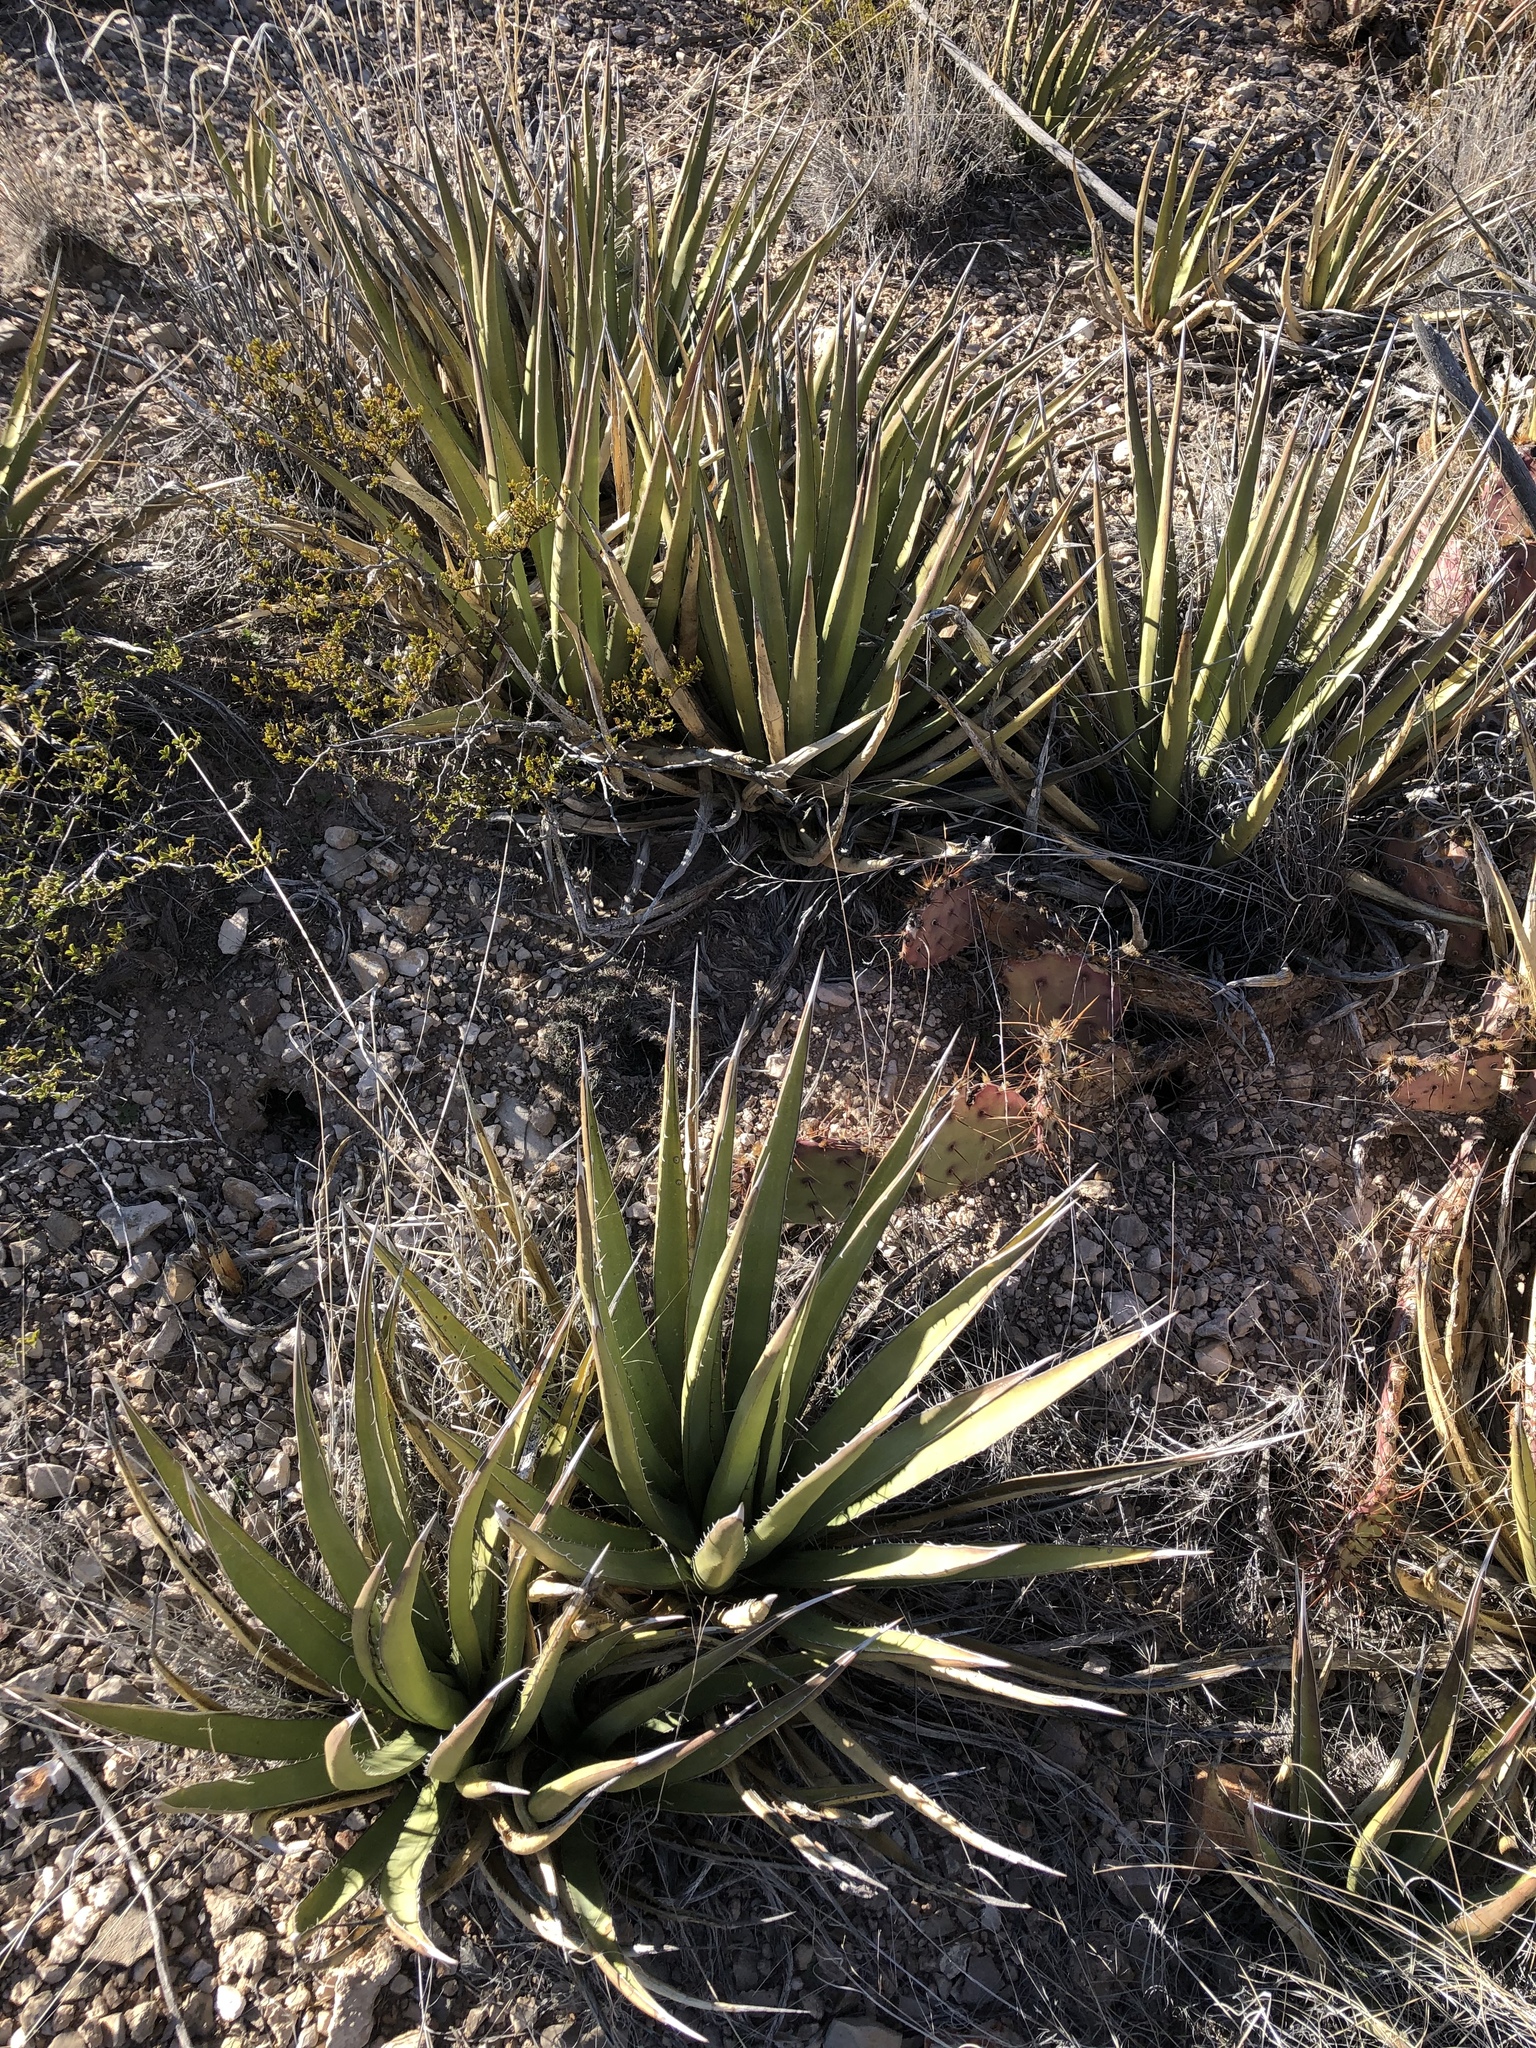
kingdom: Plantae
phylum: Tracheophyta
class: Liliopsida
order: Asparagales
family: Asparagaceae
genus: Agave
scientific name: Agave lechuguilla
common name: Lecheguilla agave
